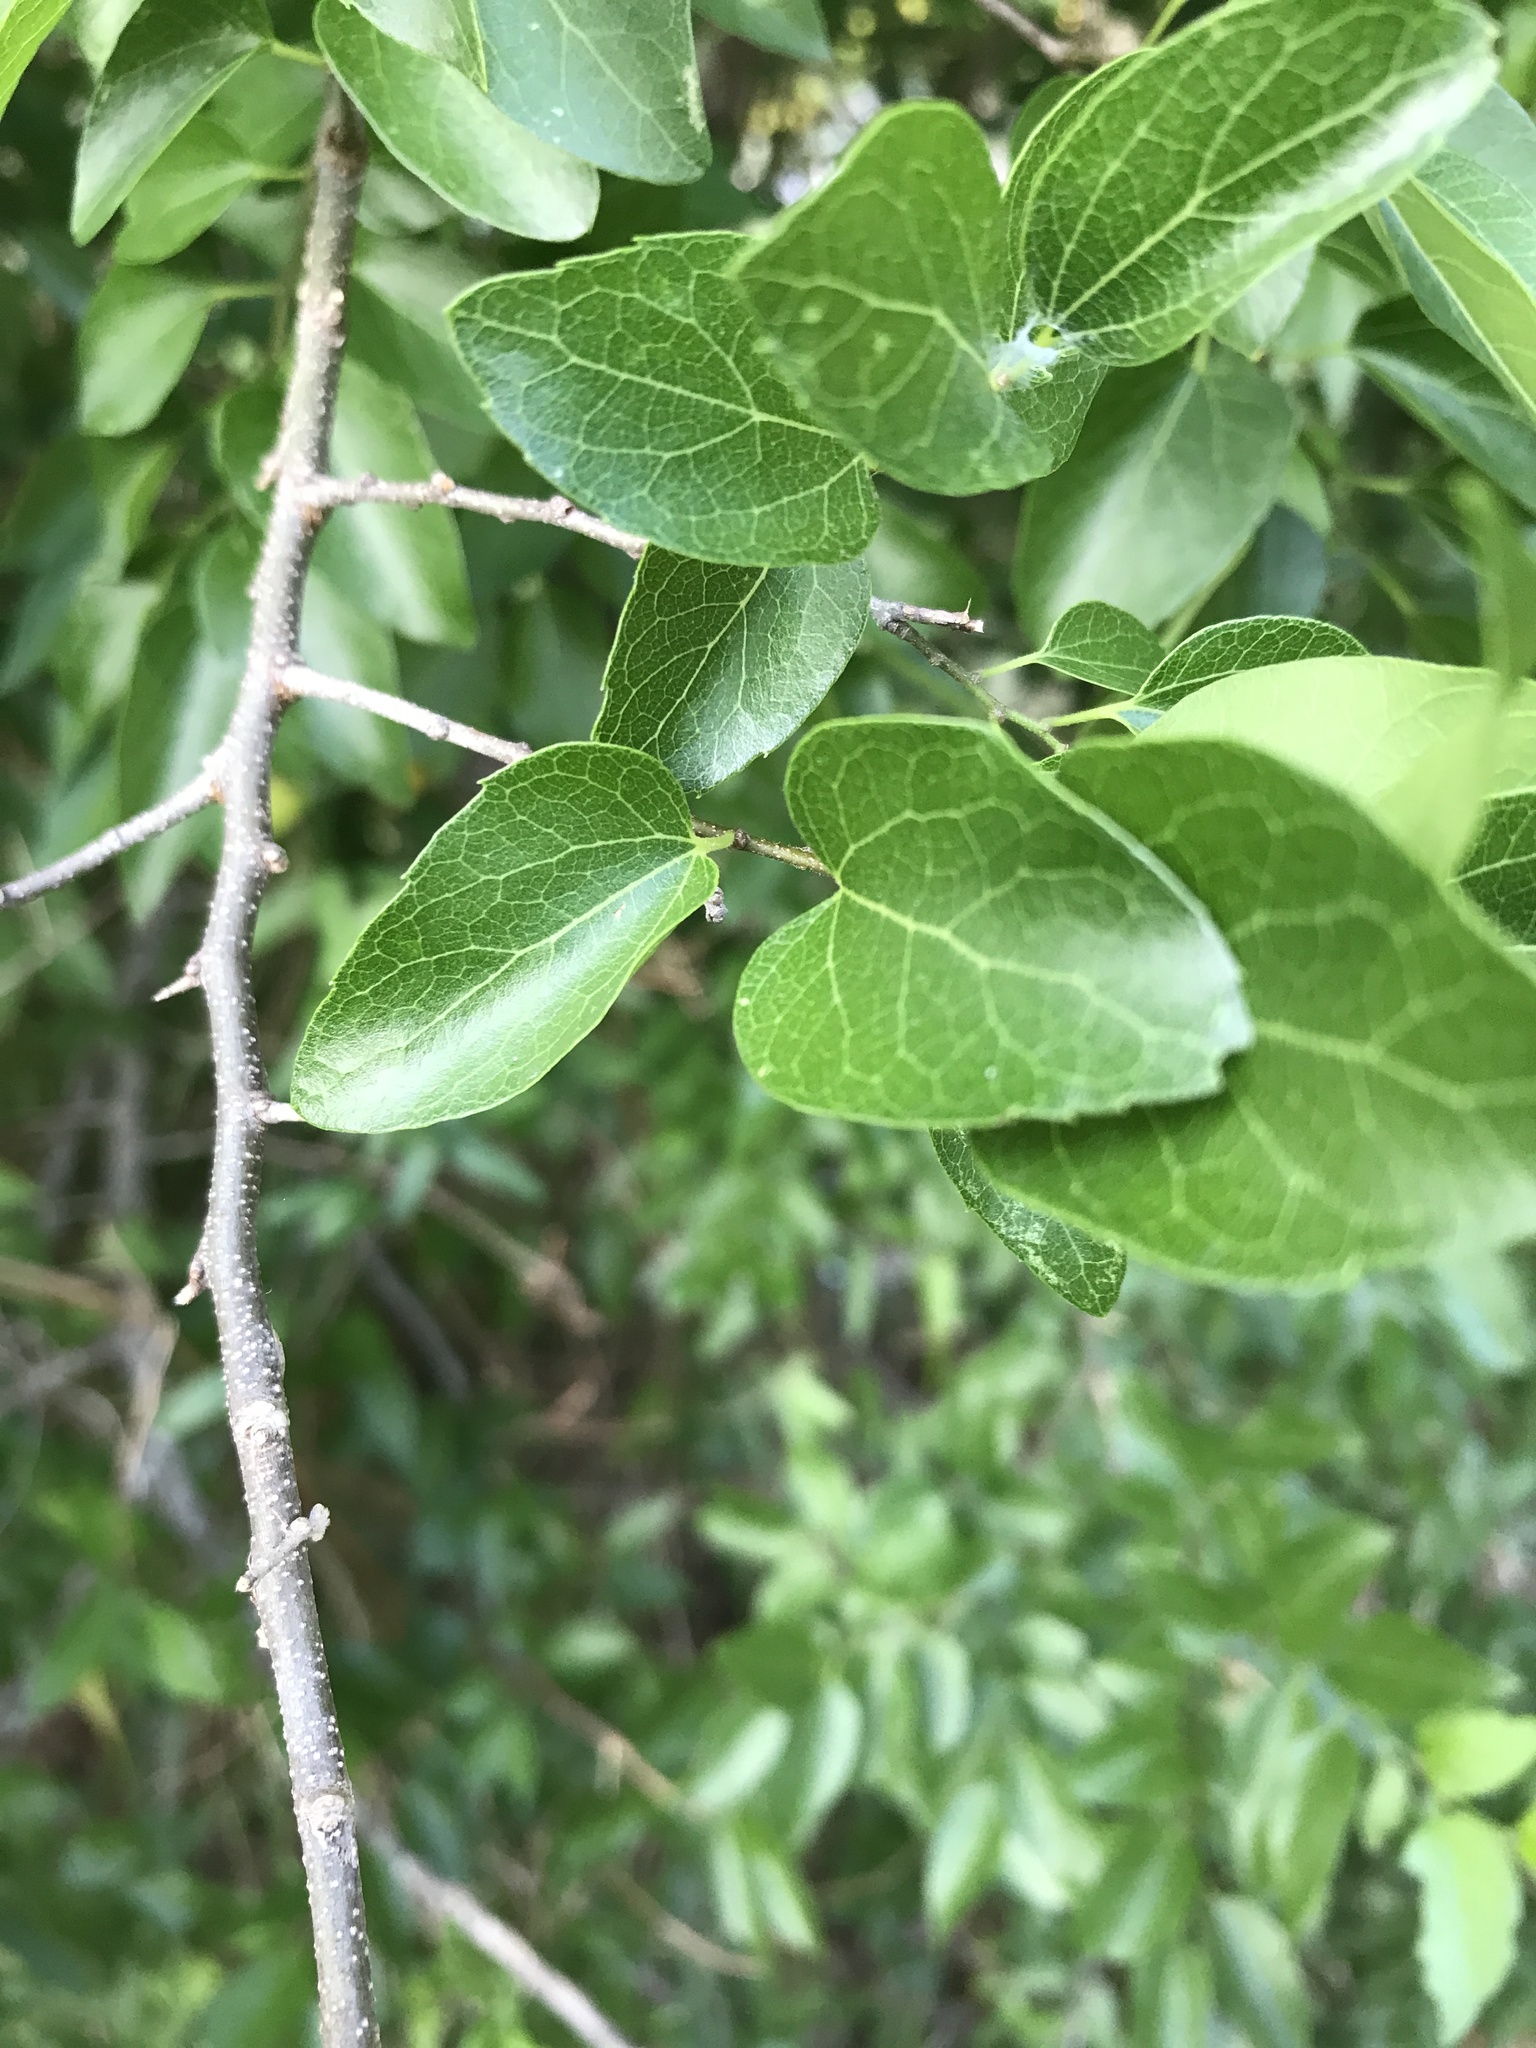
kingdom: Plantae
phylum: Tracheophyta
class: Magnoliopsida
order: Rosales
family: Cannabaceae
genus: Celtis
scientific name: Celtis laevigata
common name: Sugarberry
